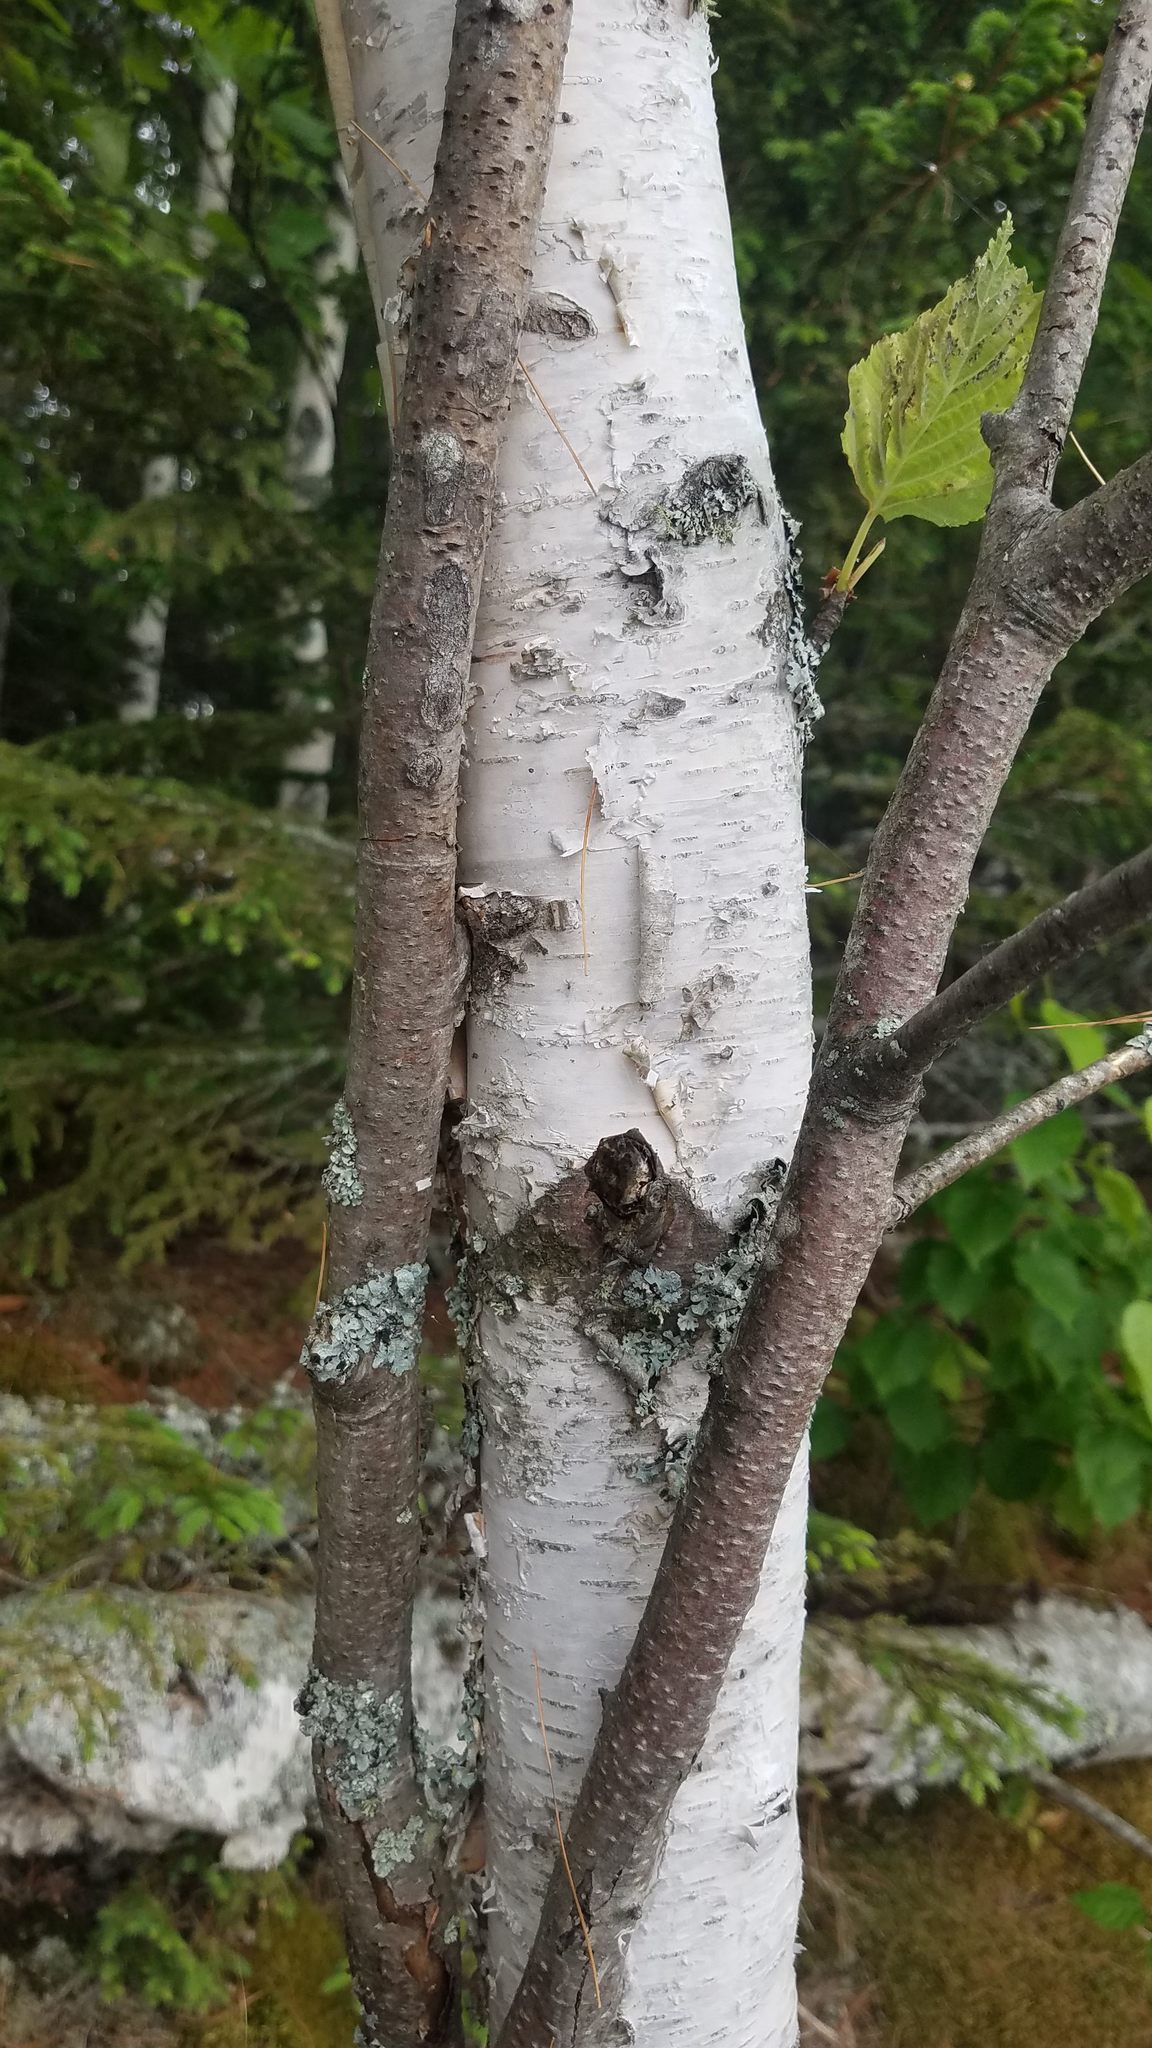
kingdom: Plantae
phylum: Tracheophyta
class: Magnoliopsida
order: Fagales
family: Betulaceae
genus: Betula
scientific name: Betula papyrifera
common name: Paper birch
